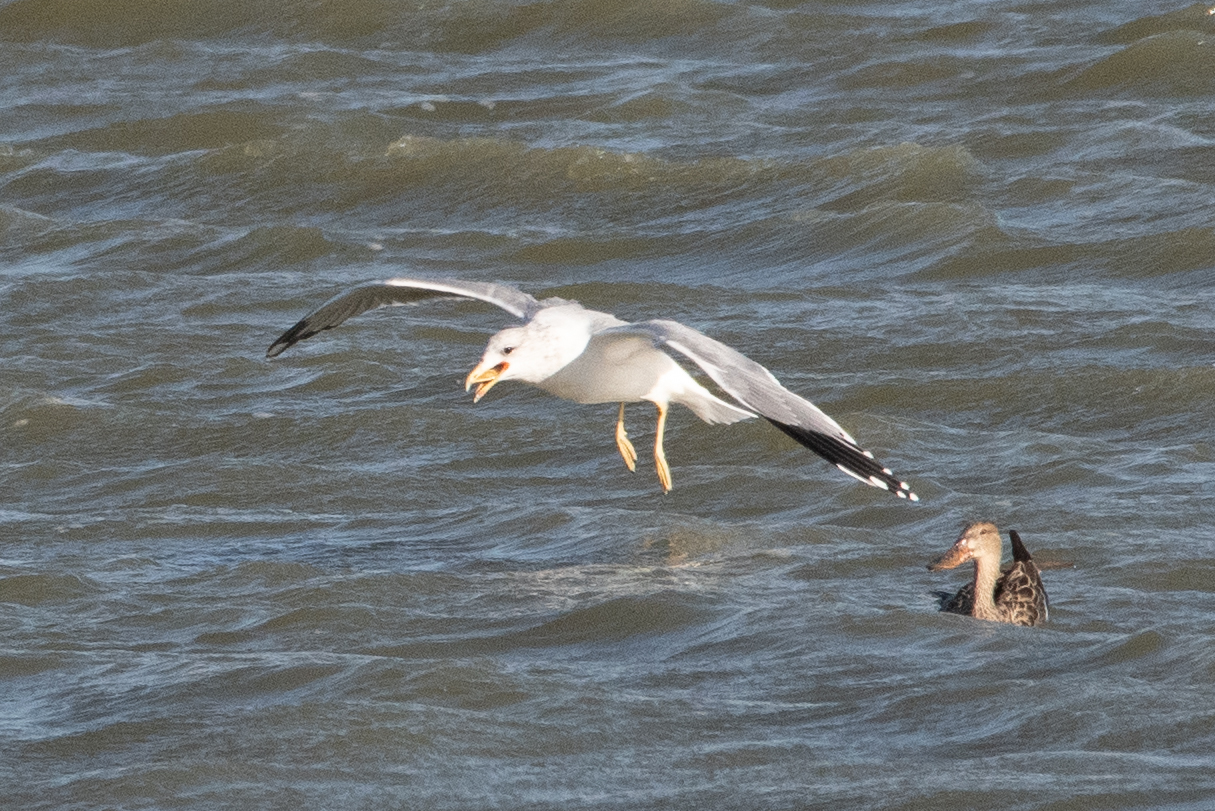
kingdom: Animalia
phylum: Chordata
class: Aves
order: Charadriiformes
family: Laridae
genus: Larus
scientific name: Larus californicus
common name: California gull
